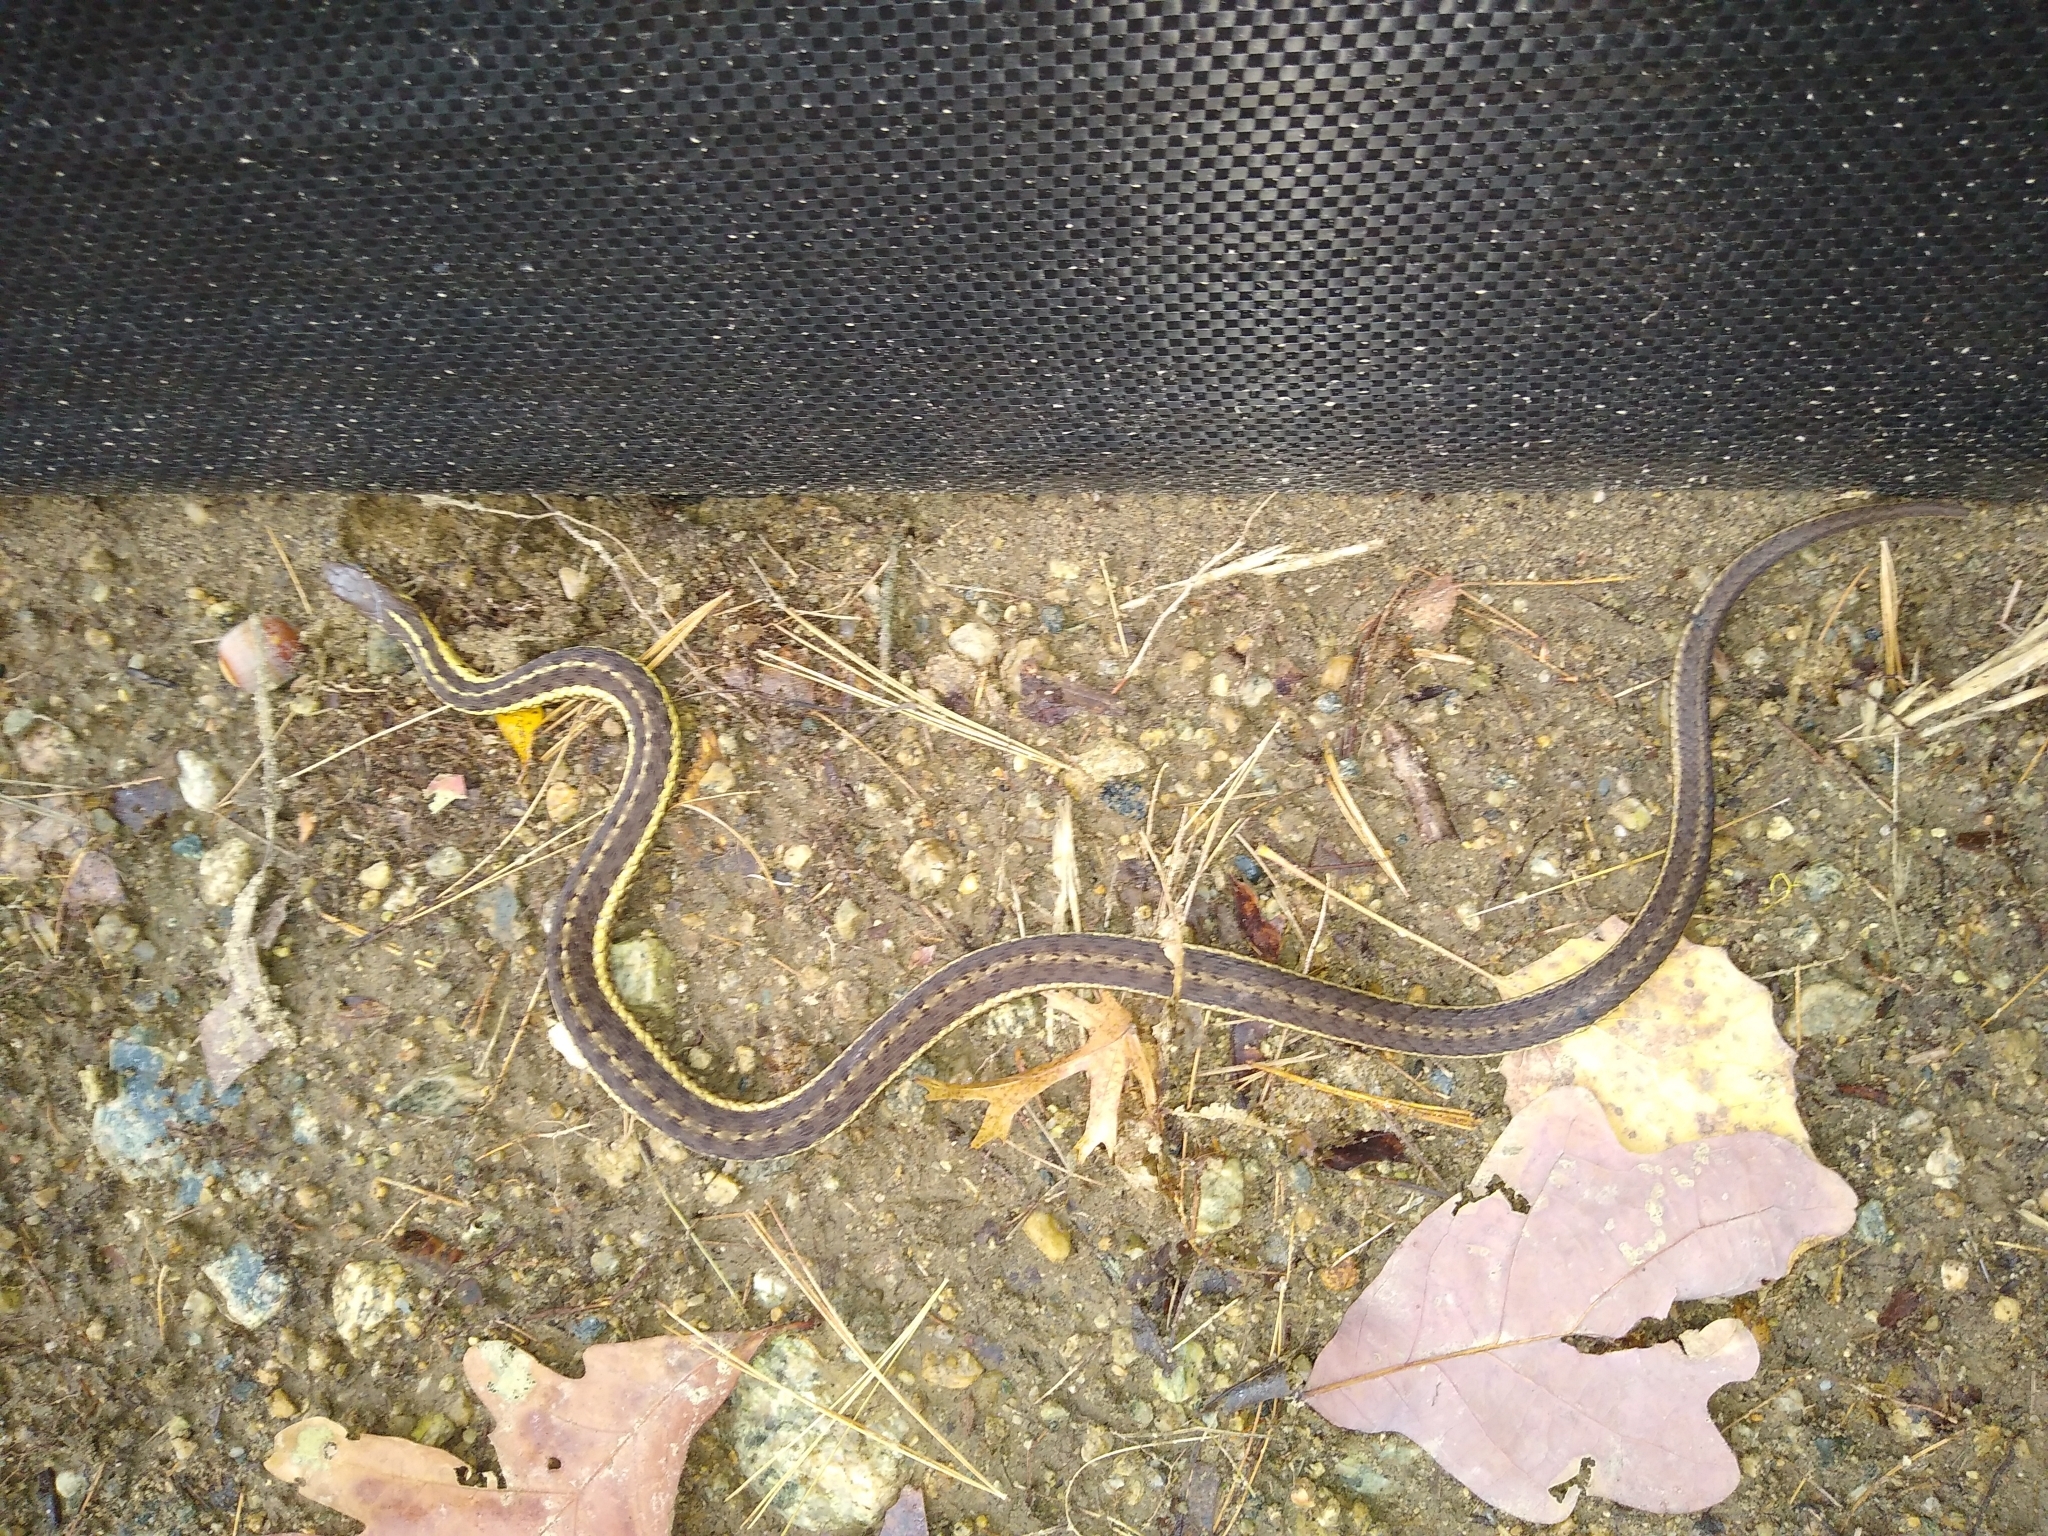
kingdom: Animalia
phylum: Chordata
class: Squamata
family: Colubridae
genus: Thamnophis
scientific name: Thamnophis sirtalis
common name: Common garter snake
